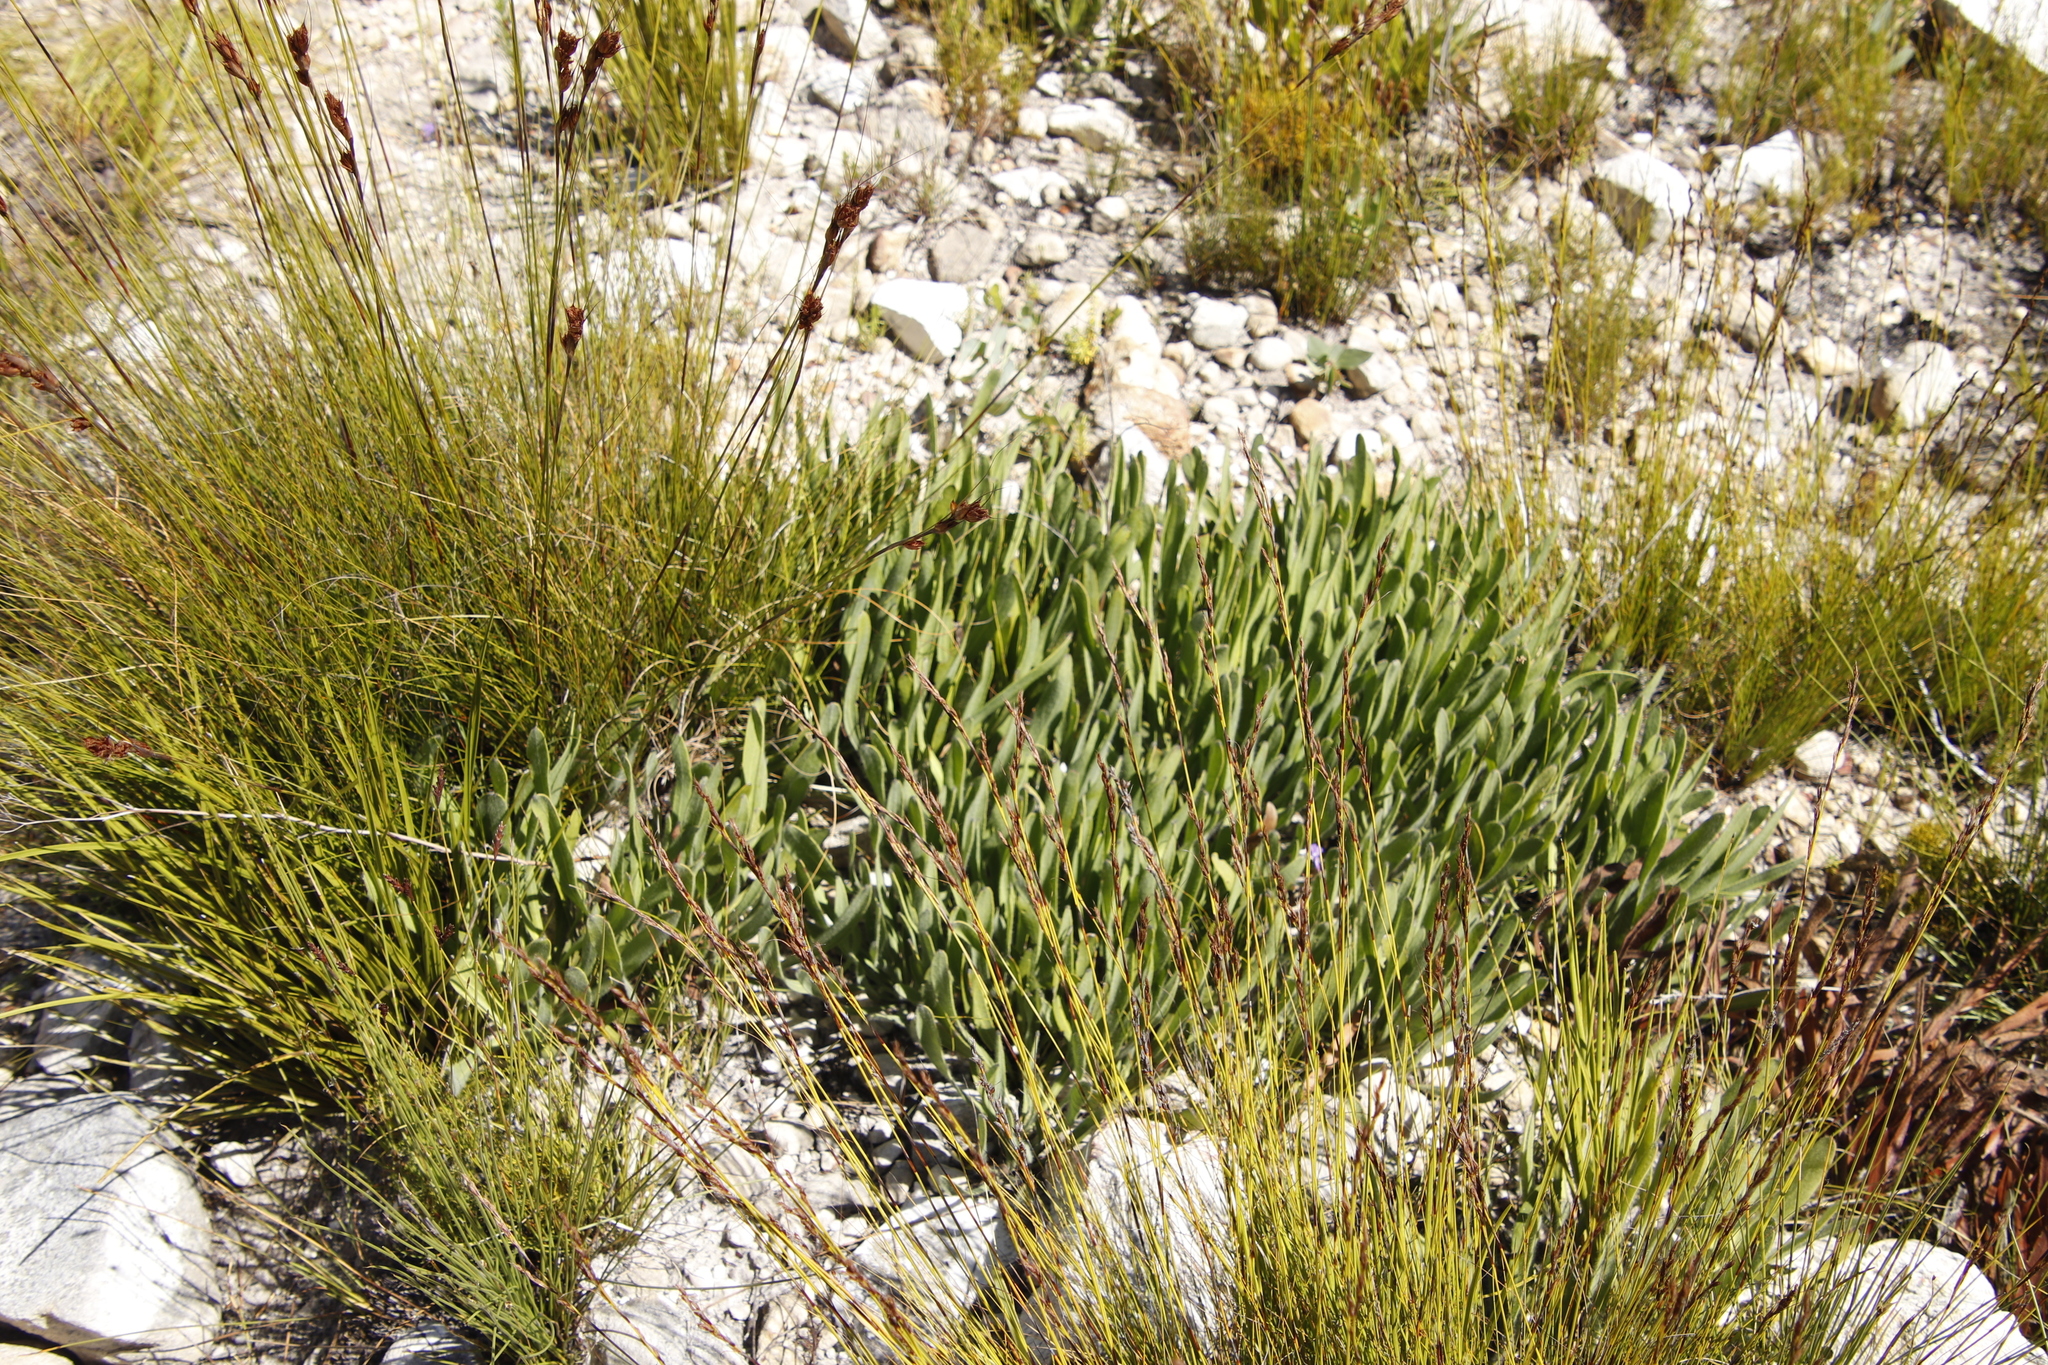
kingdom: Plantae
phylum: Tracheophyta
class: Magnoliopsida
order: Proteales
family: Proteaceae
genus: Protea
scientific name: Protea scabra
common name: Sandpaper-leaf sugarbush
